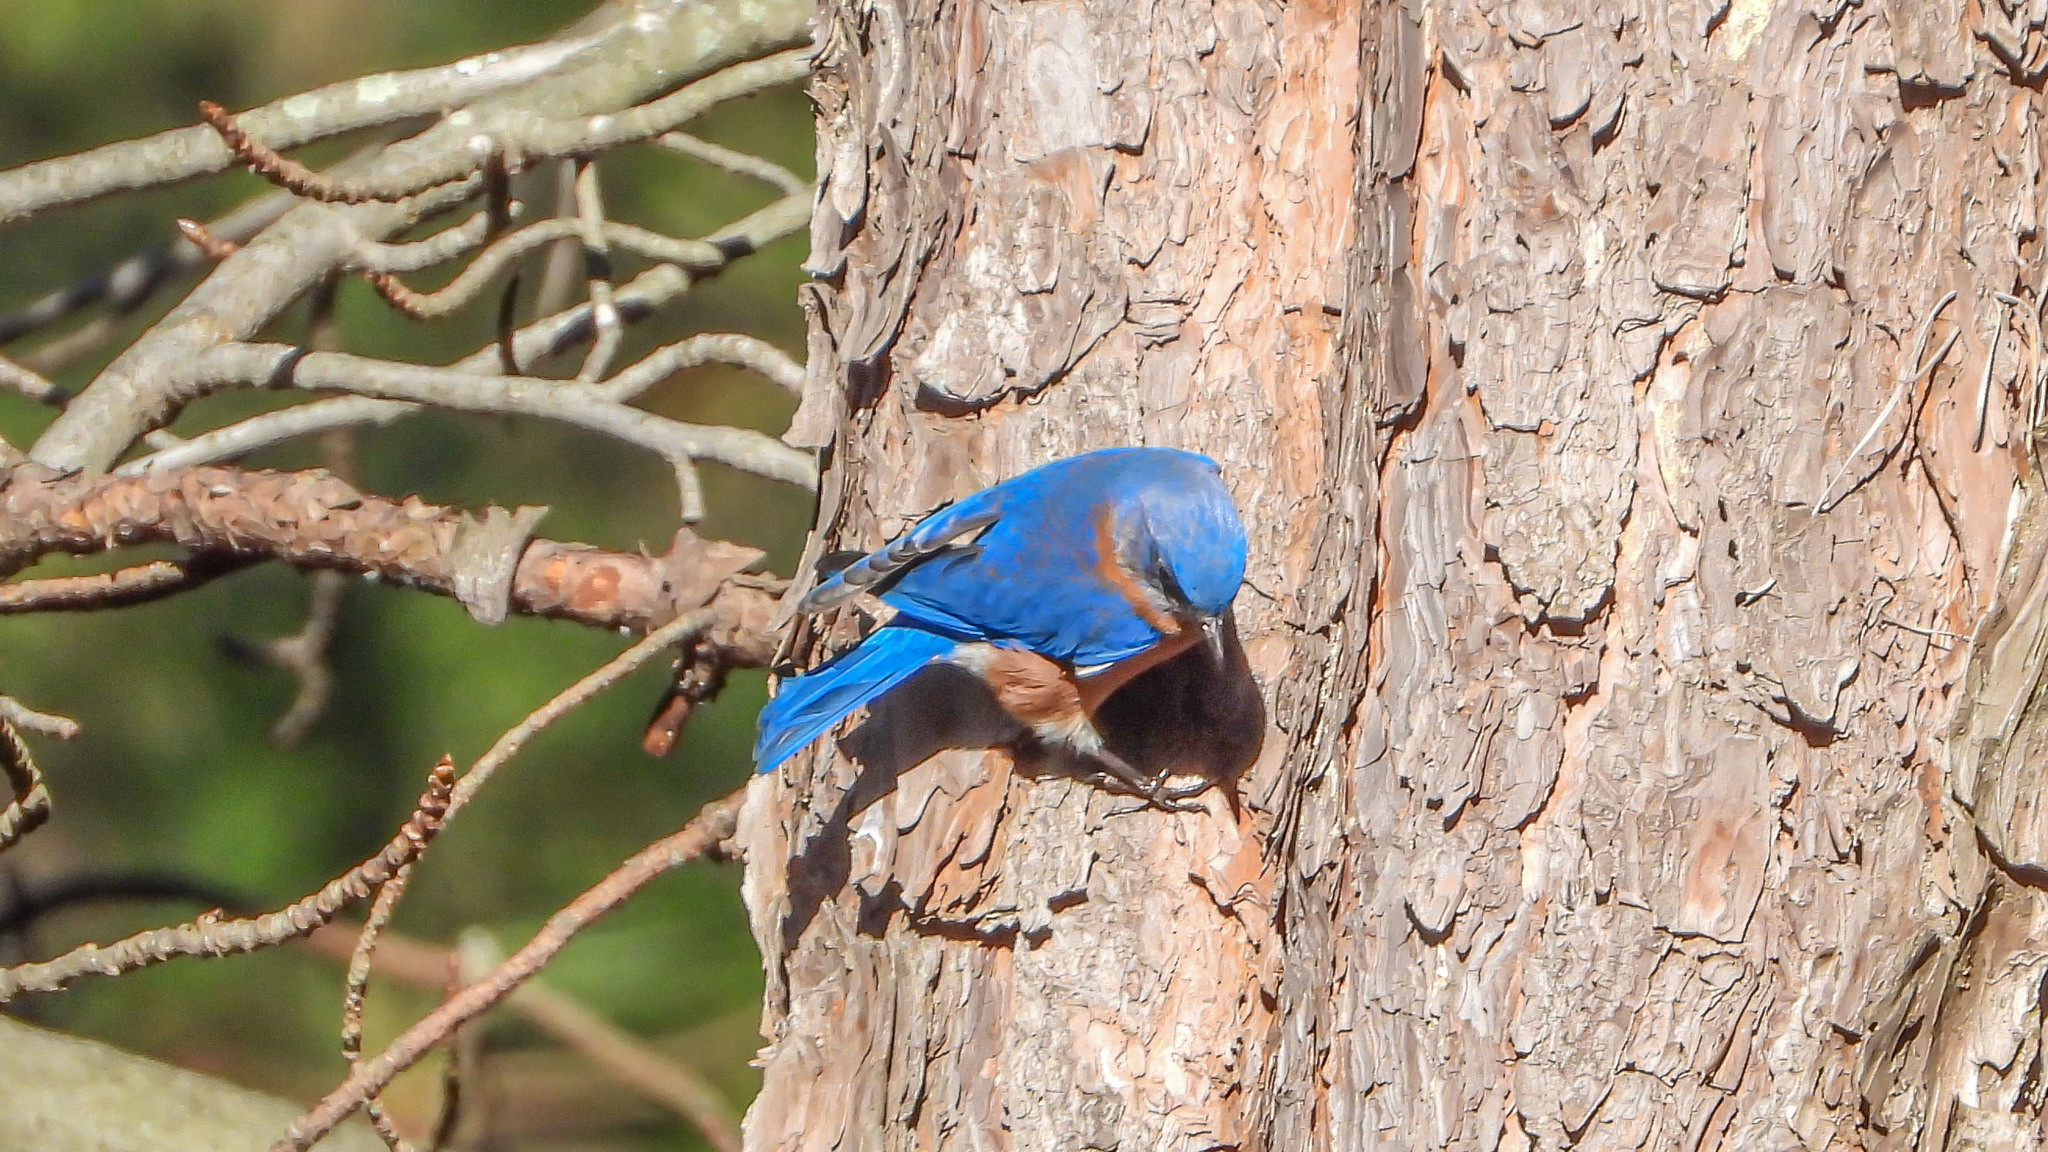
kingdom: Animalia
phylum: Chordata
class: Aves
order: Passeriformes
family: Turdidae
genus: Sialia
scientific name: Sialia sialis
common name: Eastern bluebird
